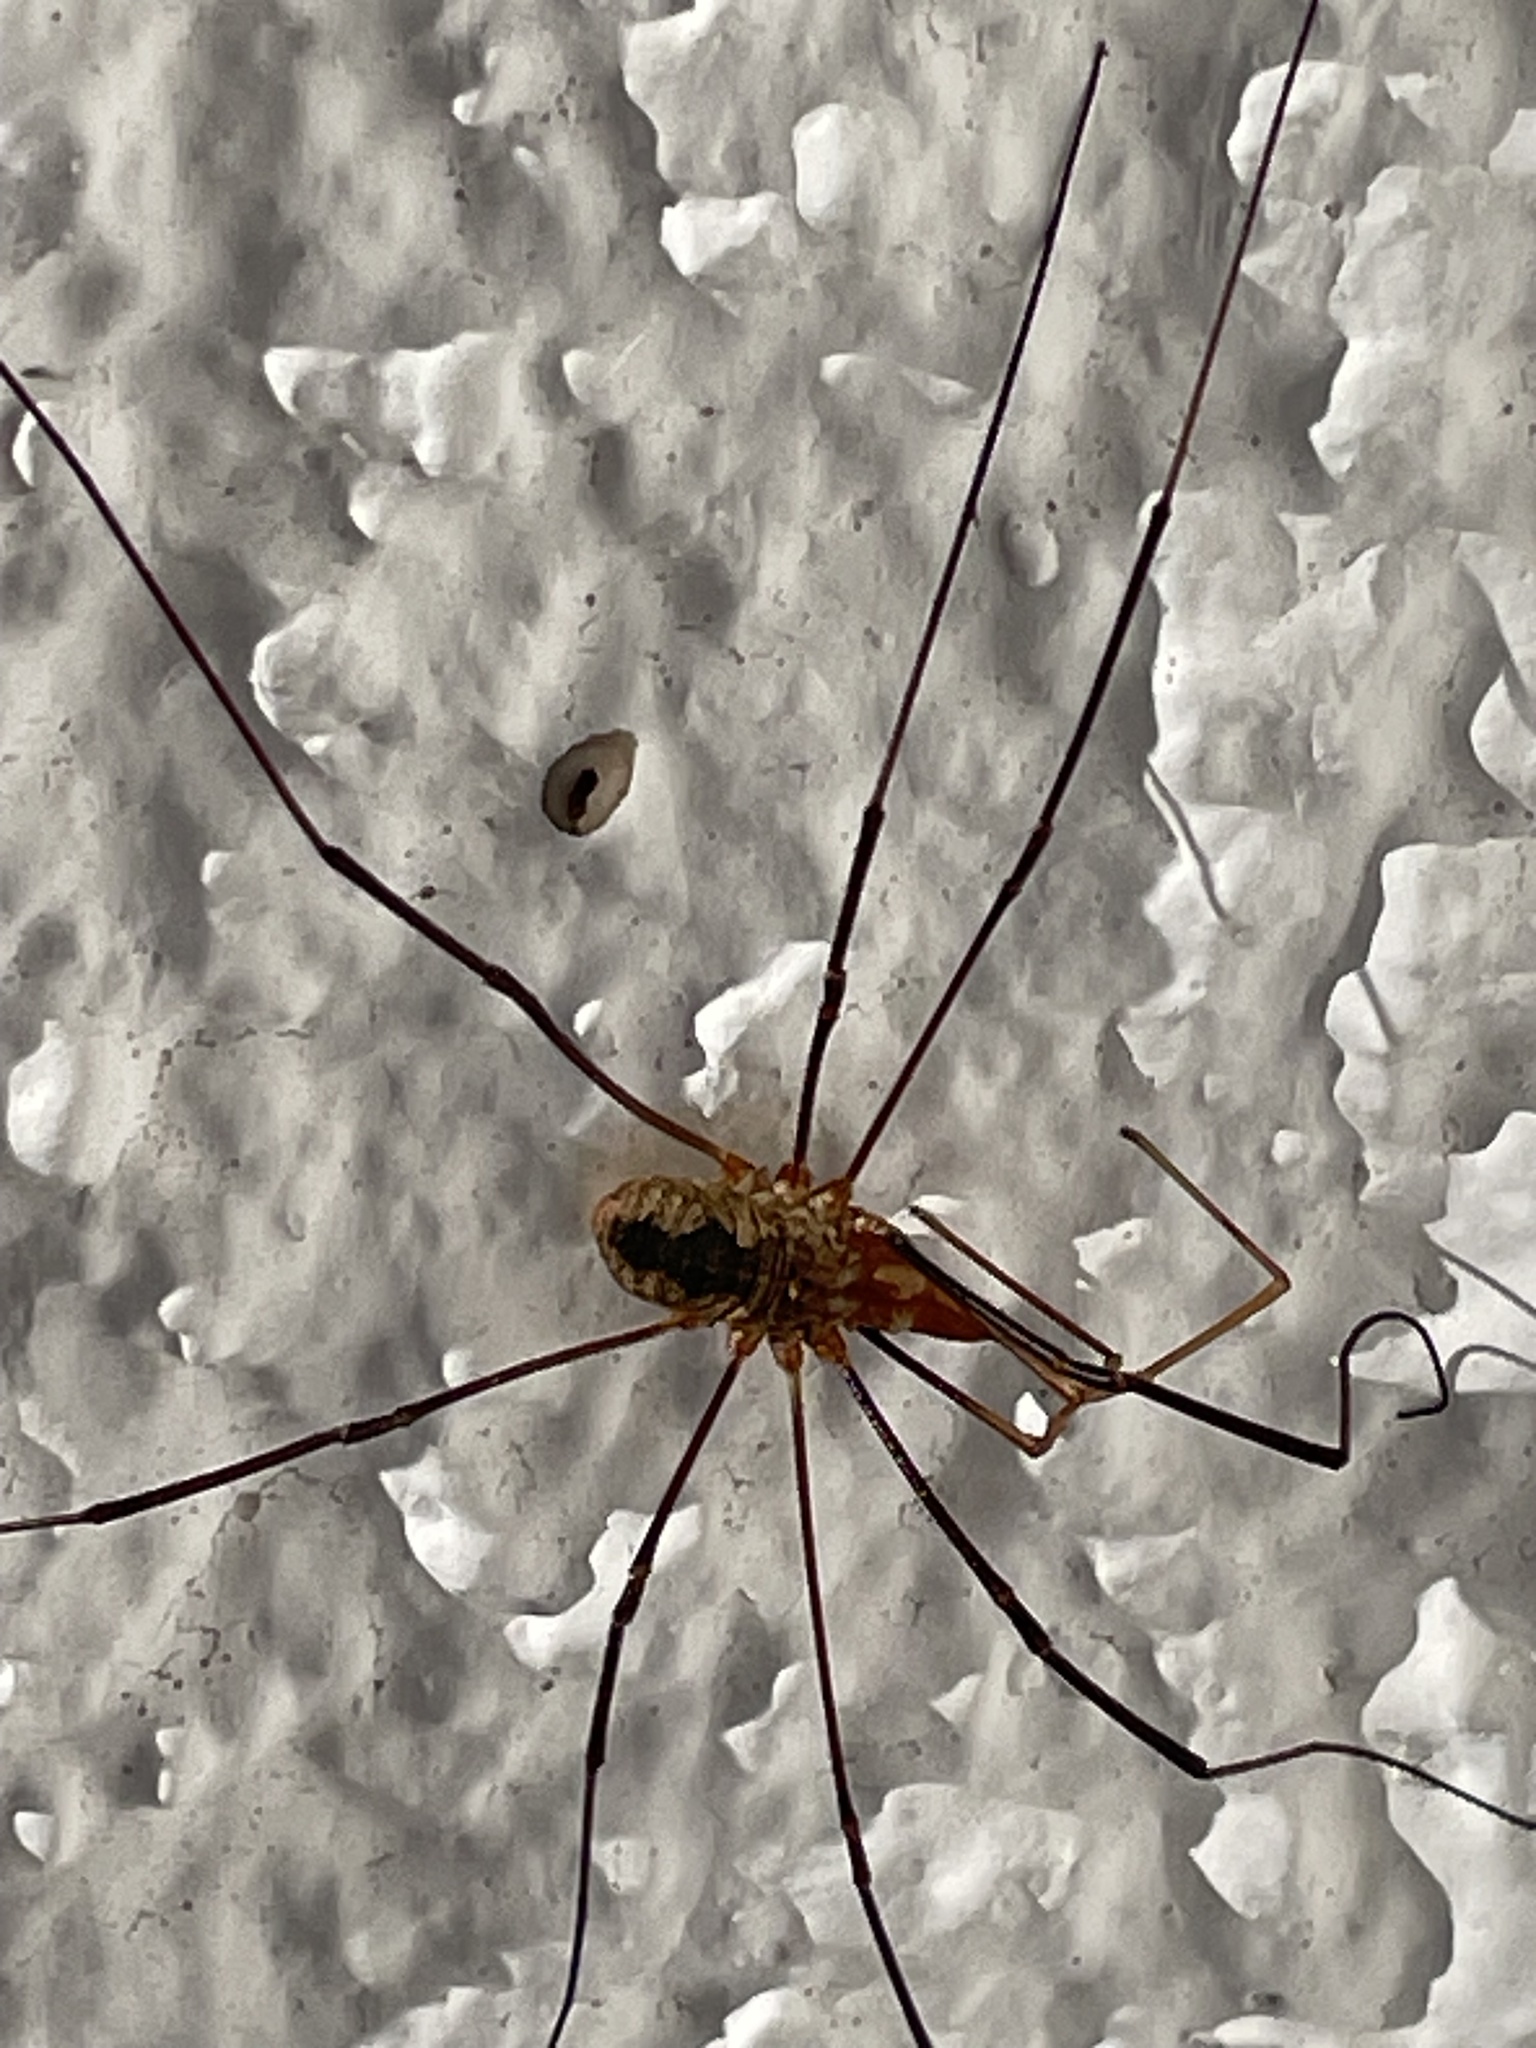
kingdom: Animalia
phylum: Arthropoda
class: Arachnida
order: Opiliones
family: Phalangiidae
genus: Phalangium
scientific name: Phalangium opilio
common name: Daddy longleg
